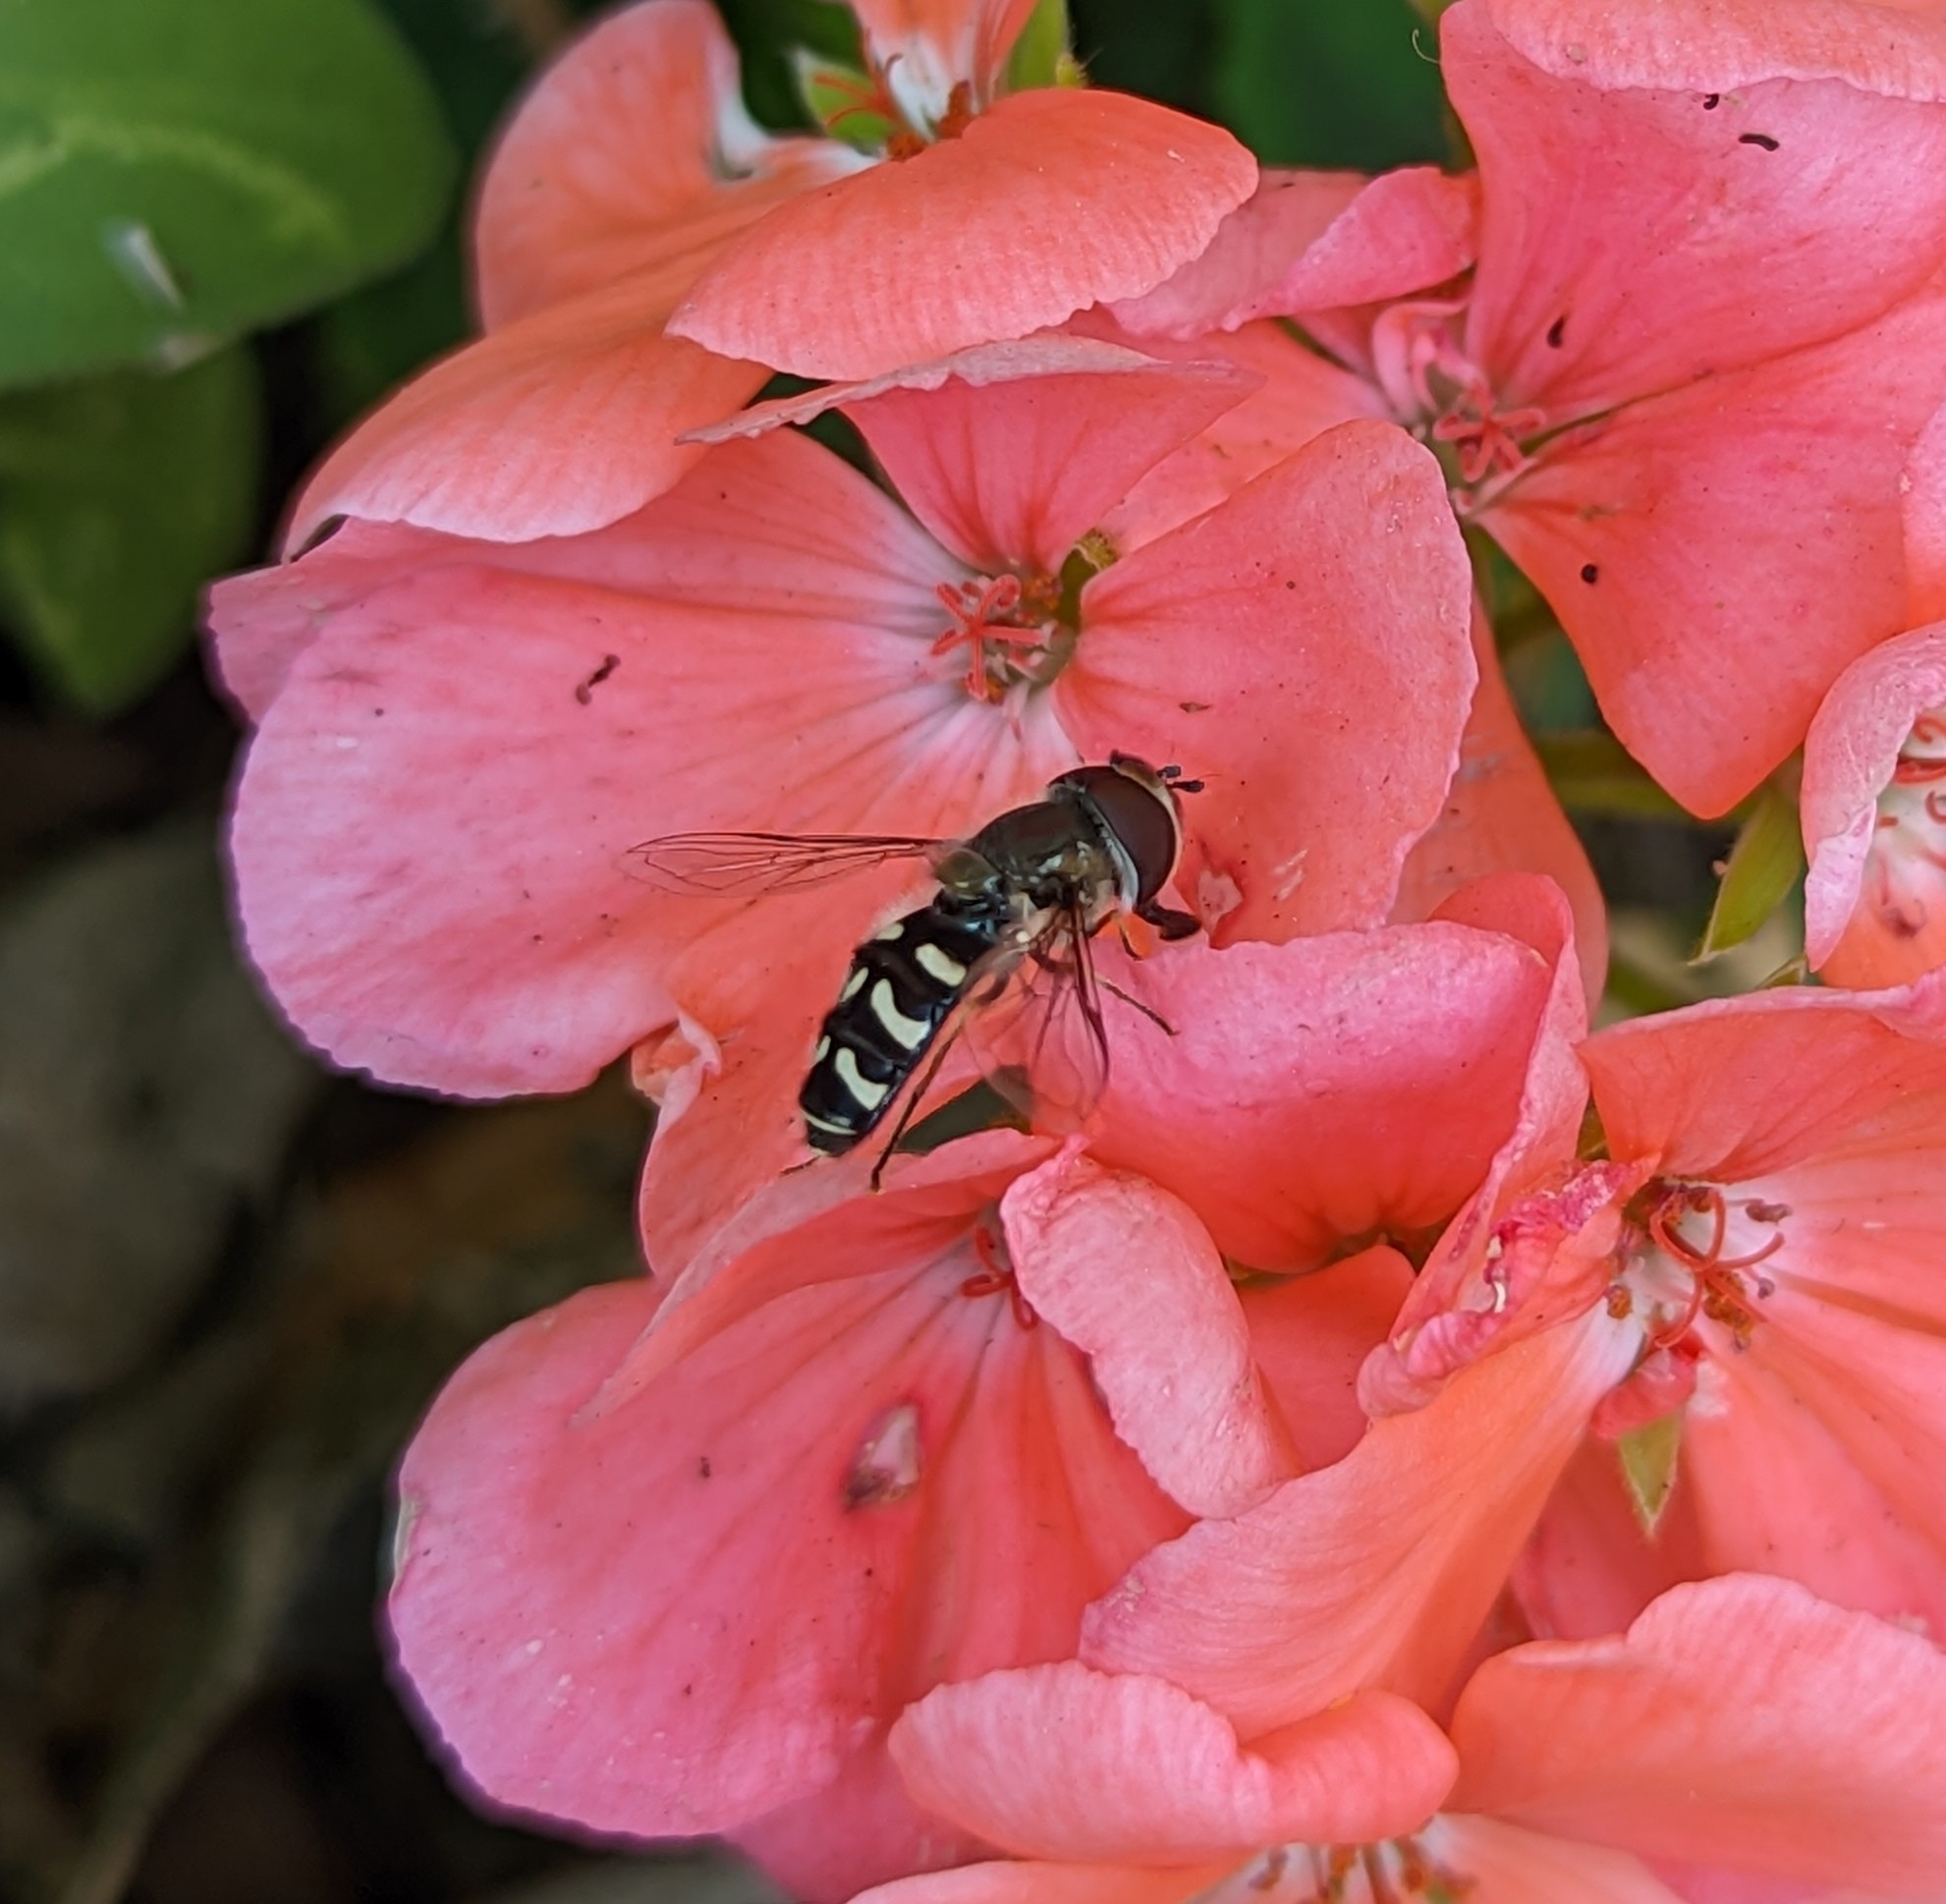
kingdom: Animalia
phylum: Arthropoda
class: Insecta
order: Diptera
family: Syrphidae
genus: Scaeva
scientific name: Scaeva affinis
